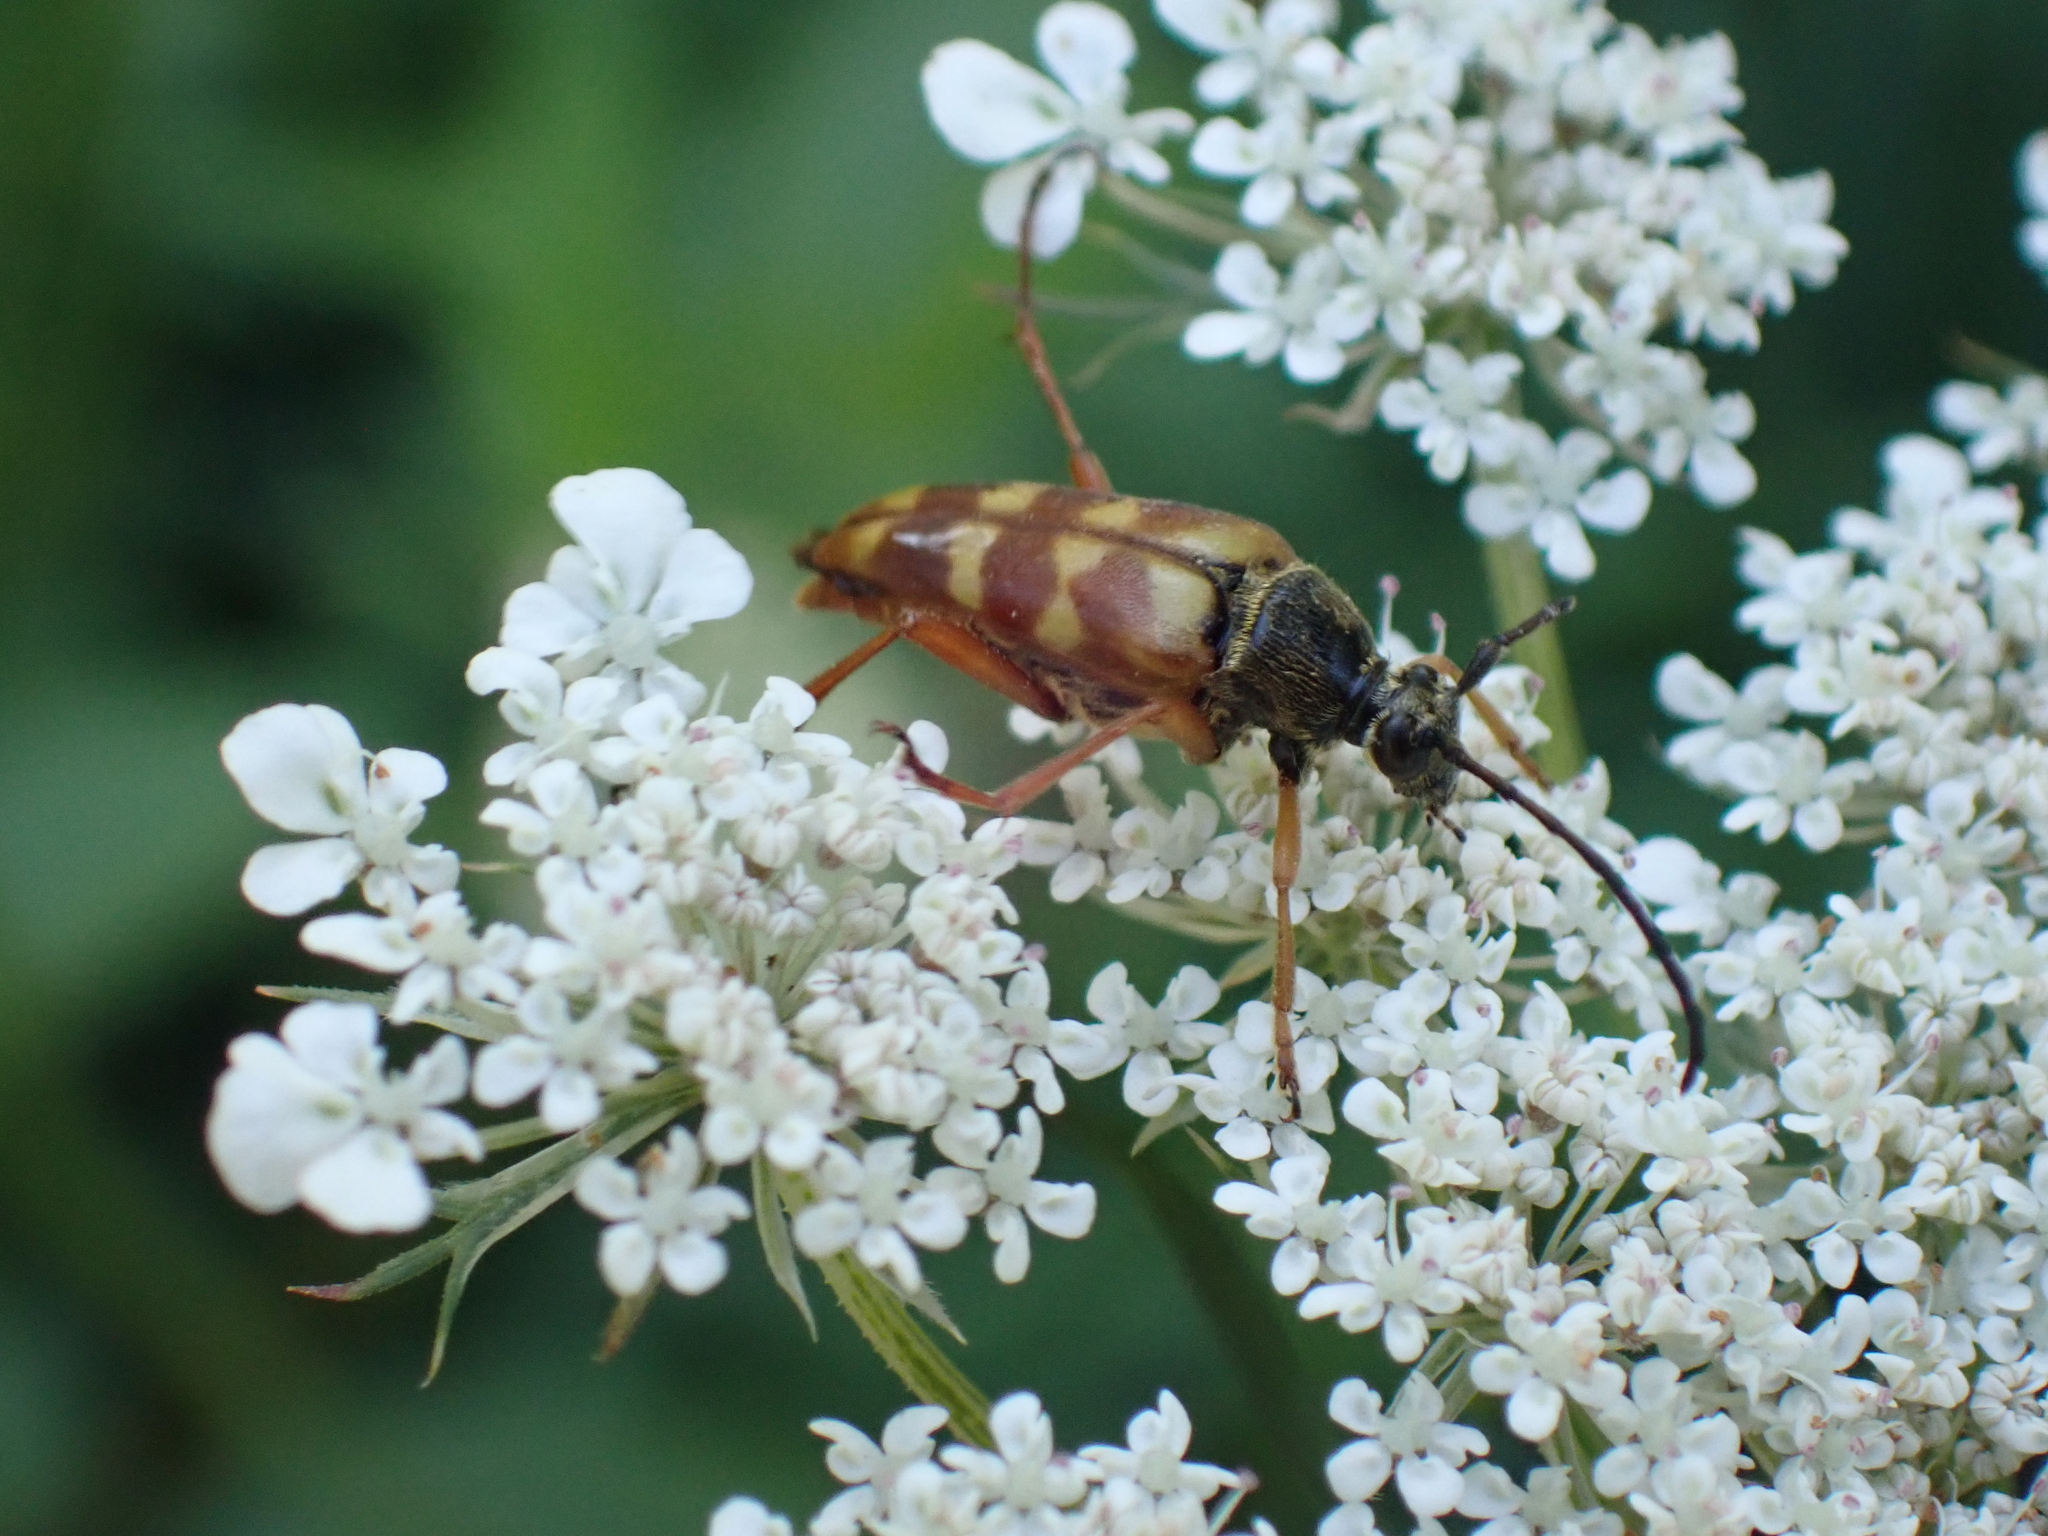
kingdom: Animalia
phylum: Arthropoda
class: Insecta
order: Coleoptera
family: Cerambycidae
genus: Typocerus
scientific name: Typocerus velutinus
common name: Banded longhorn beetle
